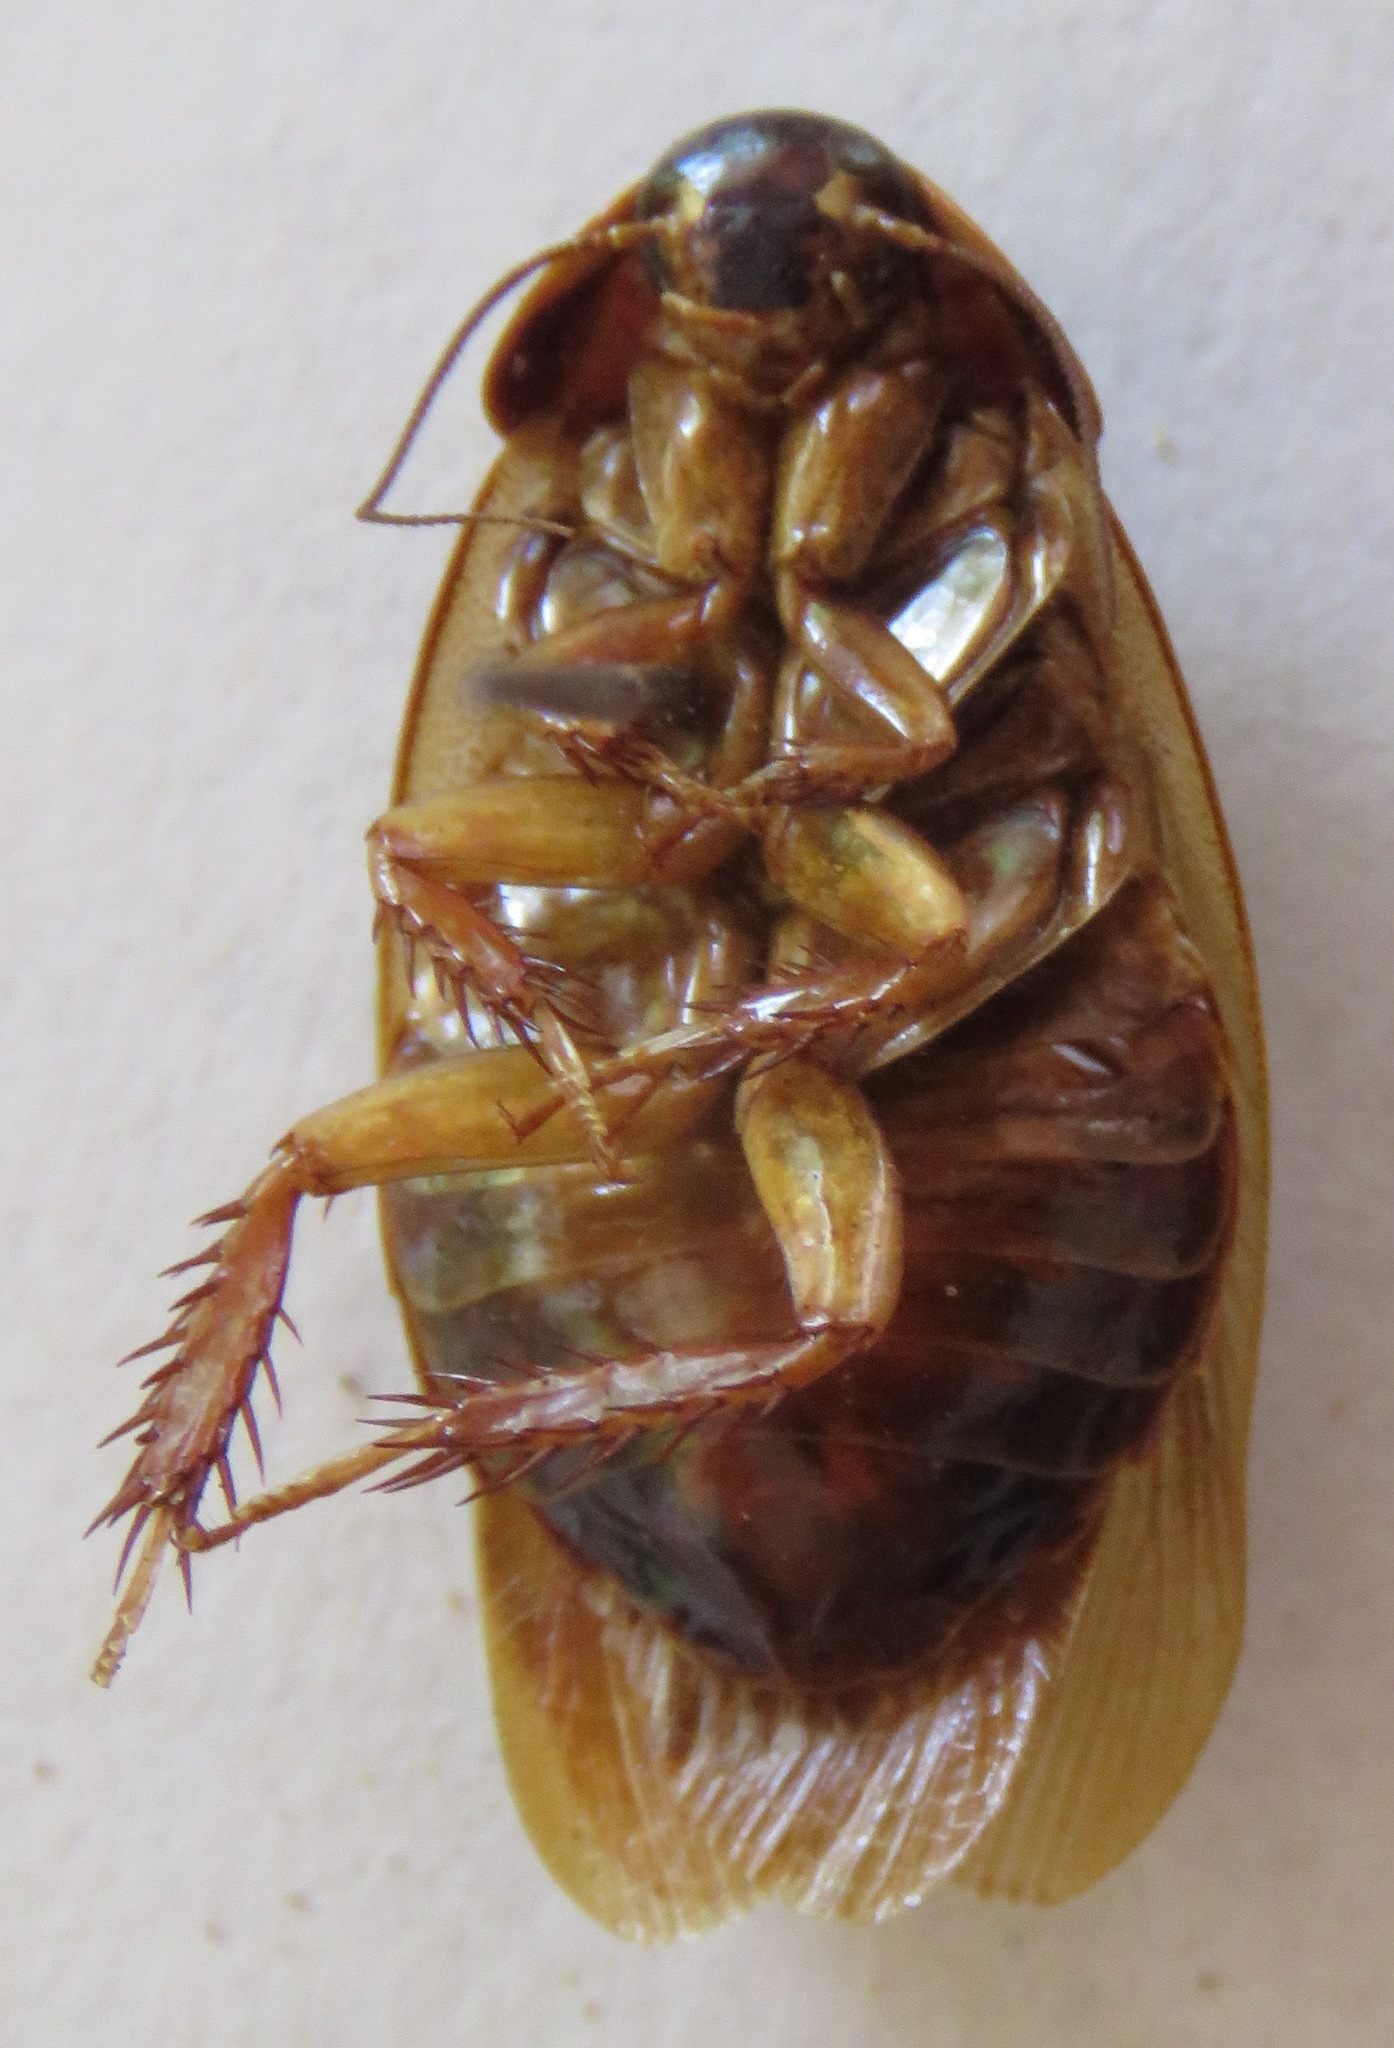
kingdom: Animalia
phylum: Arthropoda
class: Insecta
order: Blattodea
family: Blaberidae
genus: Pycnoscelus
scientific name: Pycnoscelus surinamensis
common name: Surinam cockroach
